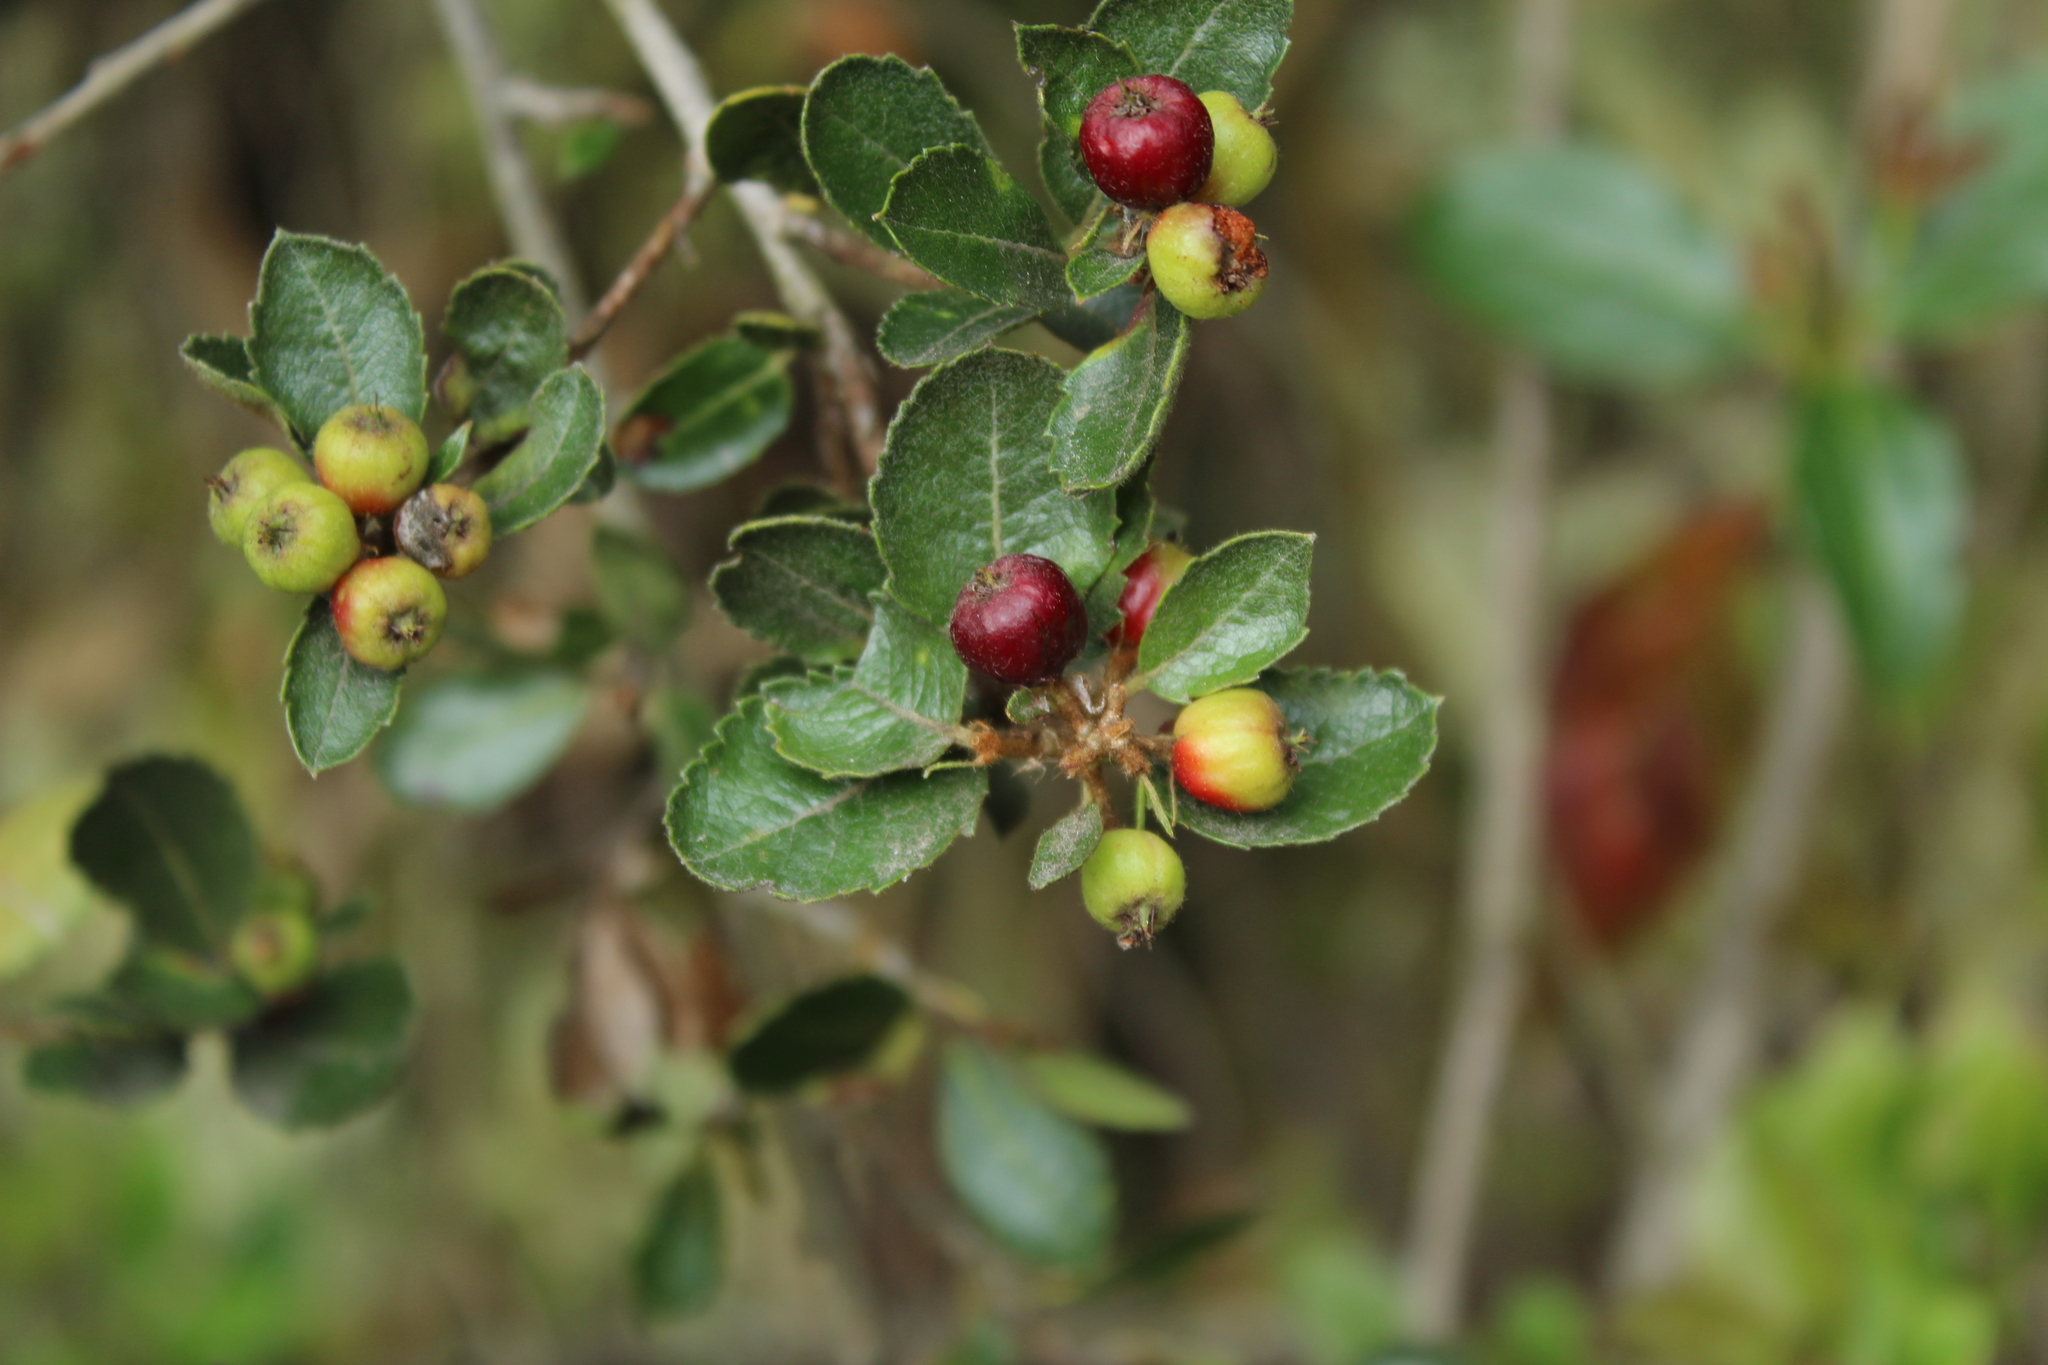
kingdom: Plantae
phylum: Tracheophyta
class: Magnoliopsida
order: Rosales
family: Rosaceae
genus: Hesperomeles
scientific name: Hesperomeles goudotiana
